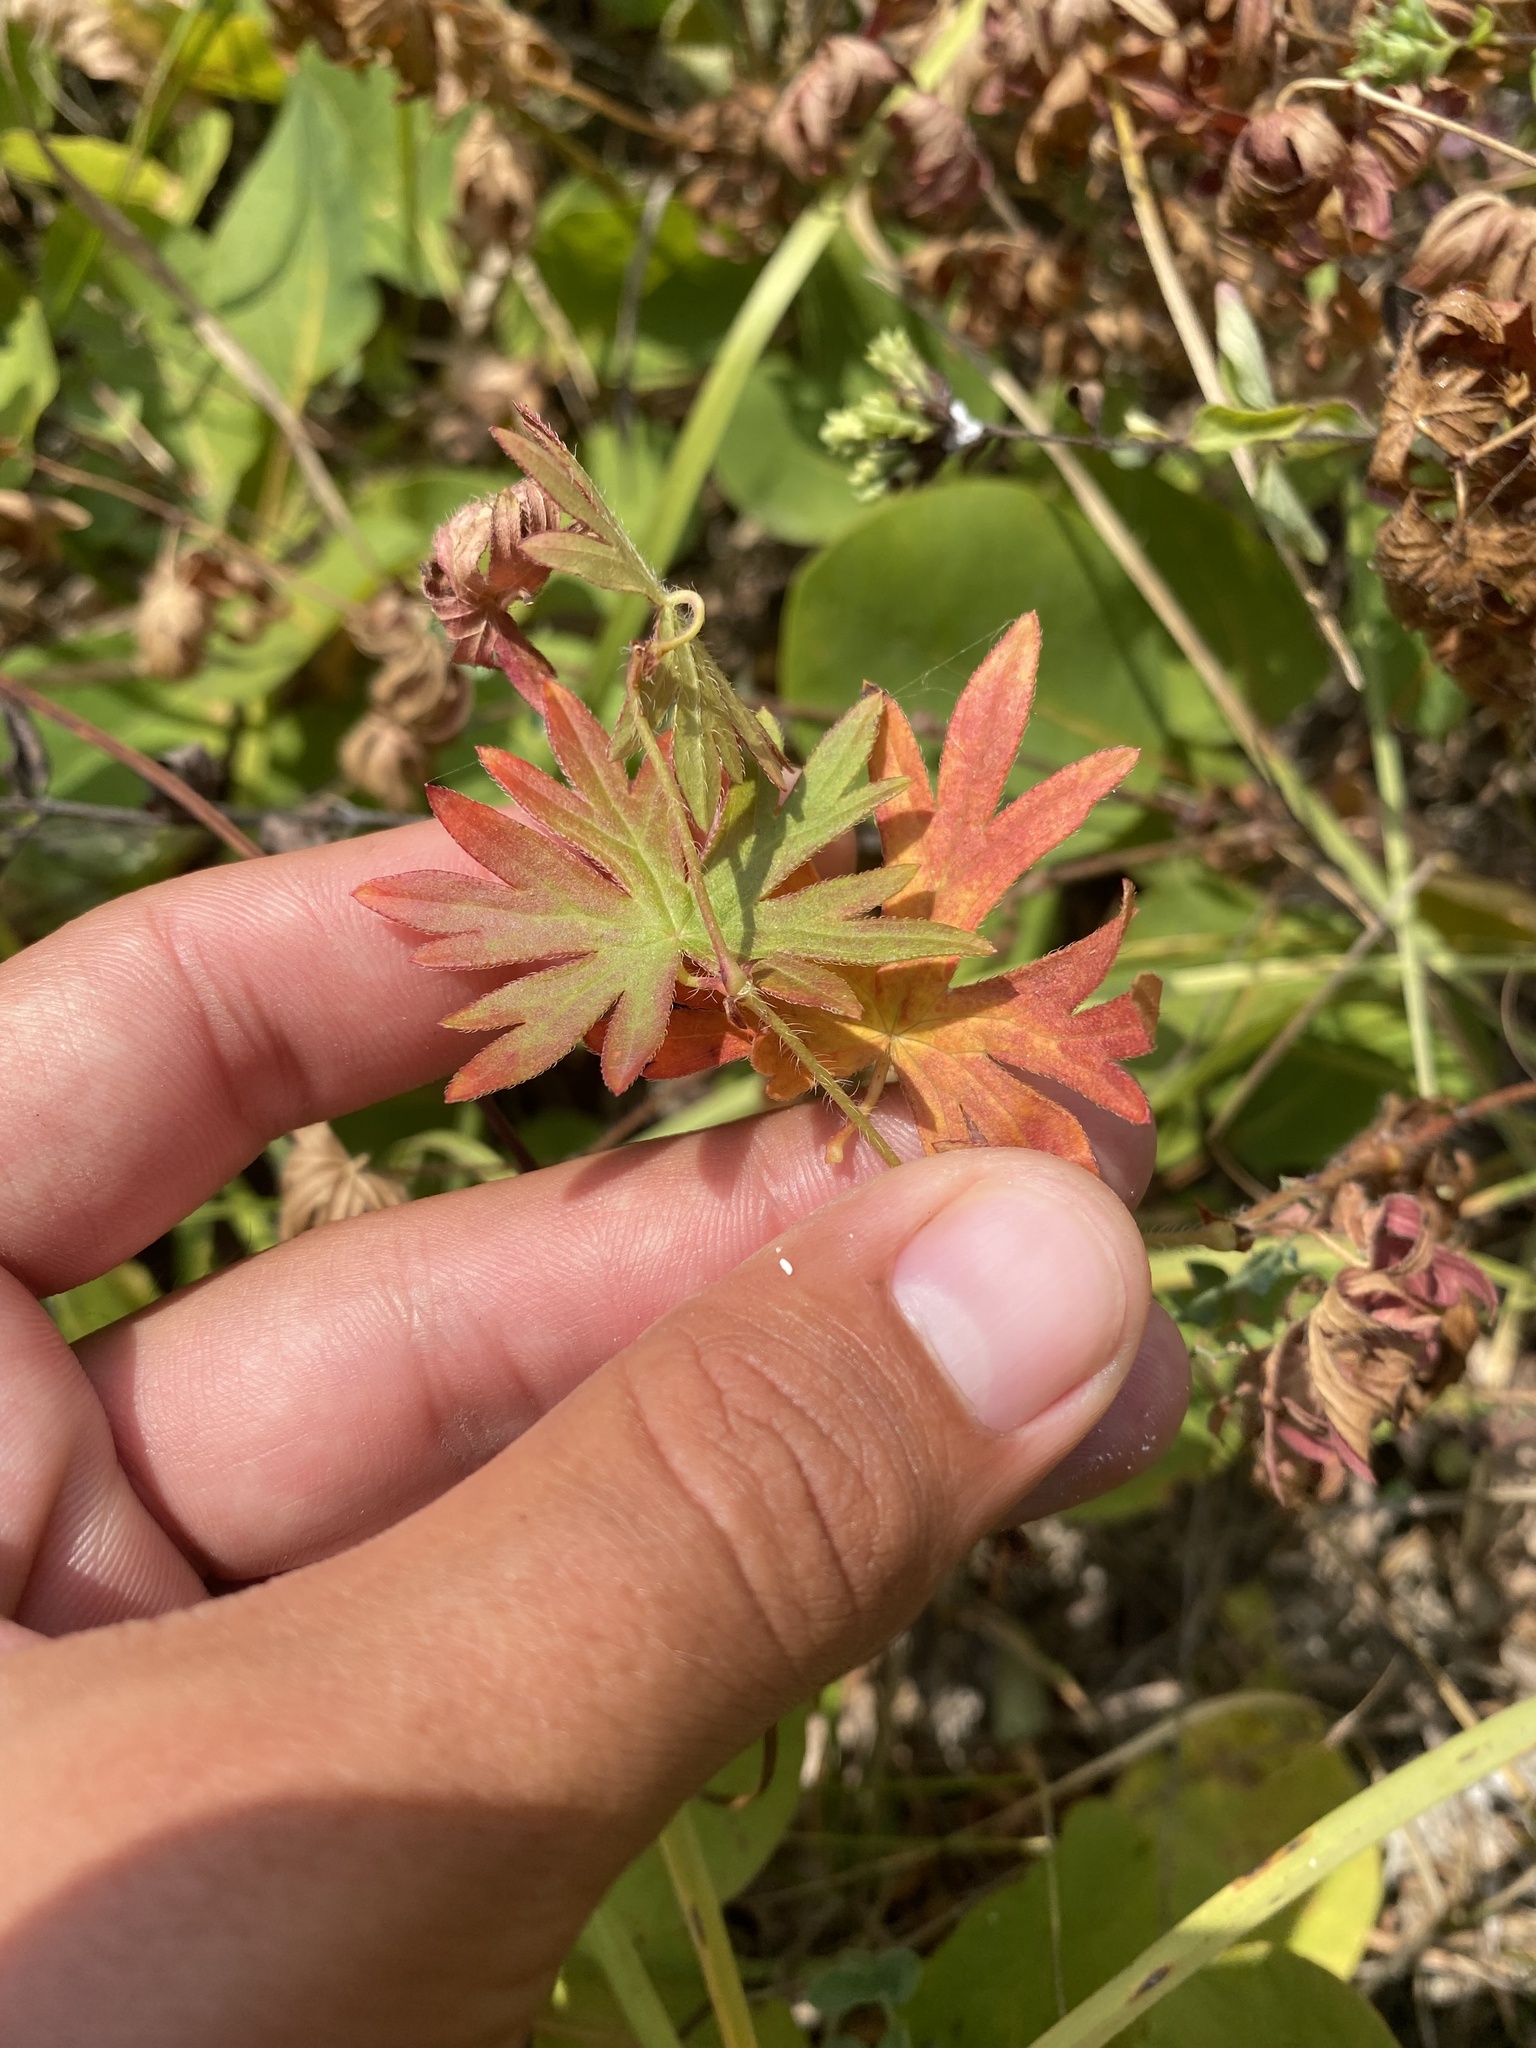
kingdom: Plantae
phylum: Tracheophyta
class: Magnoliopsida
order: Geraniales
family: Geraniaceae
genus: Geranium
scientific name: Geranium sanguineum
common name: Bloody crane's-bill
